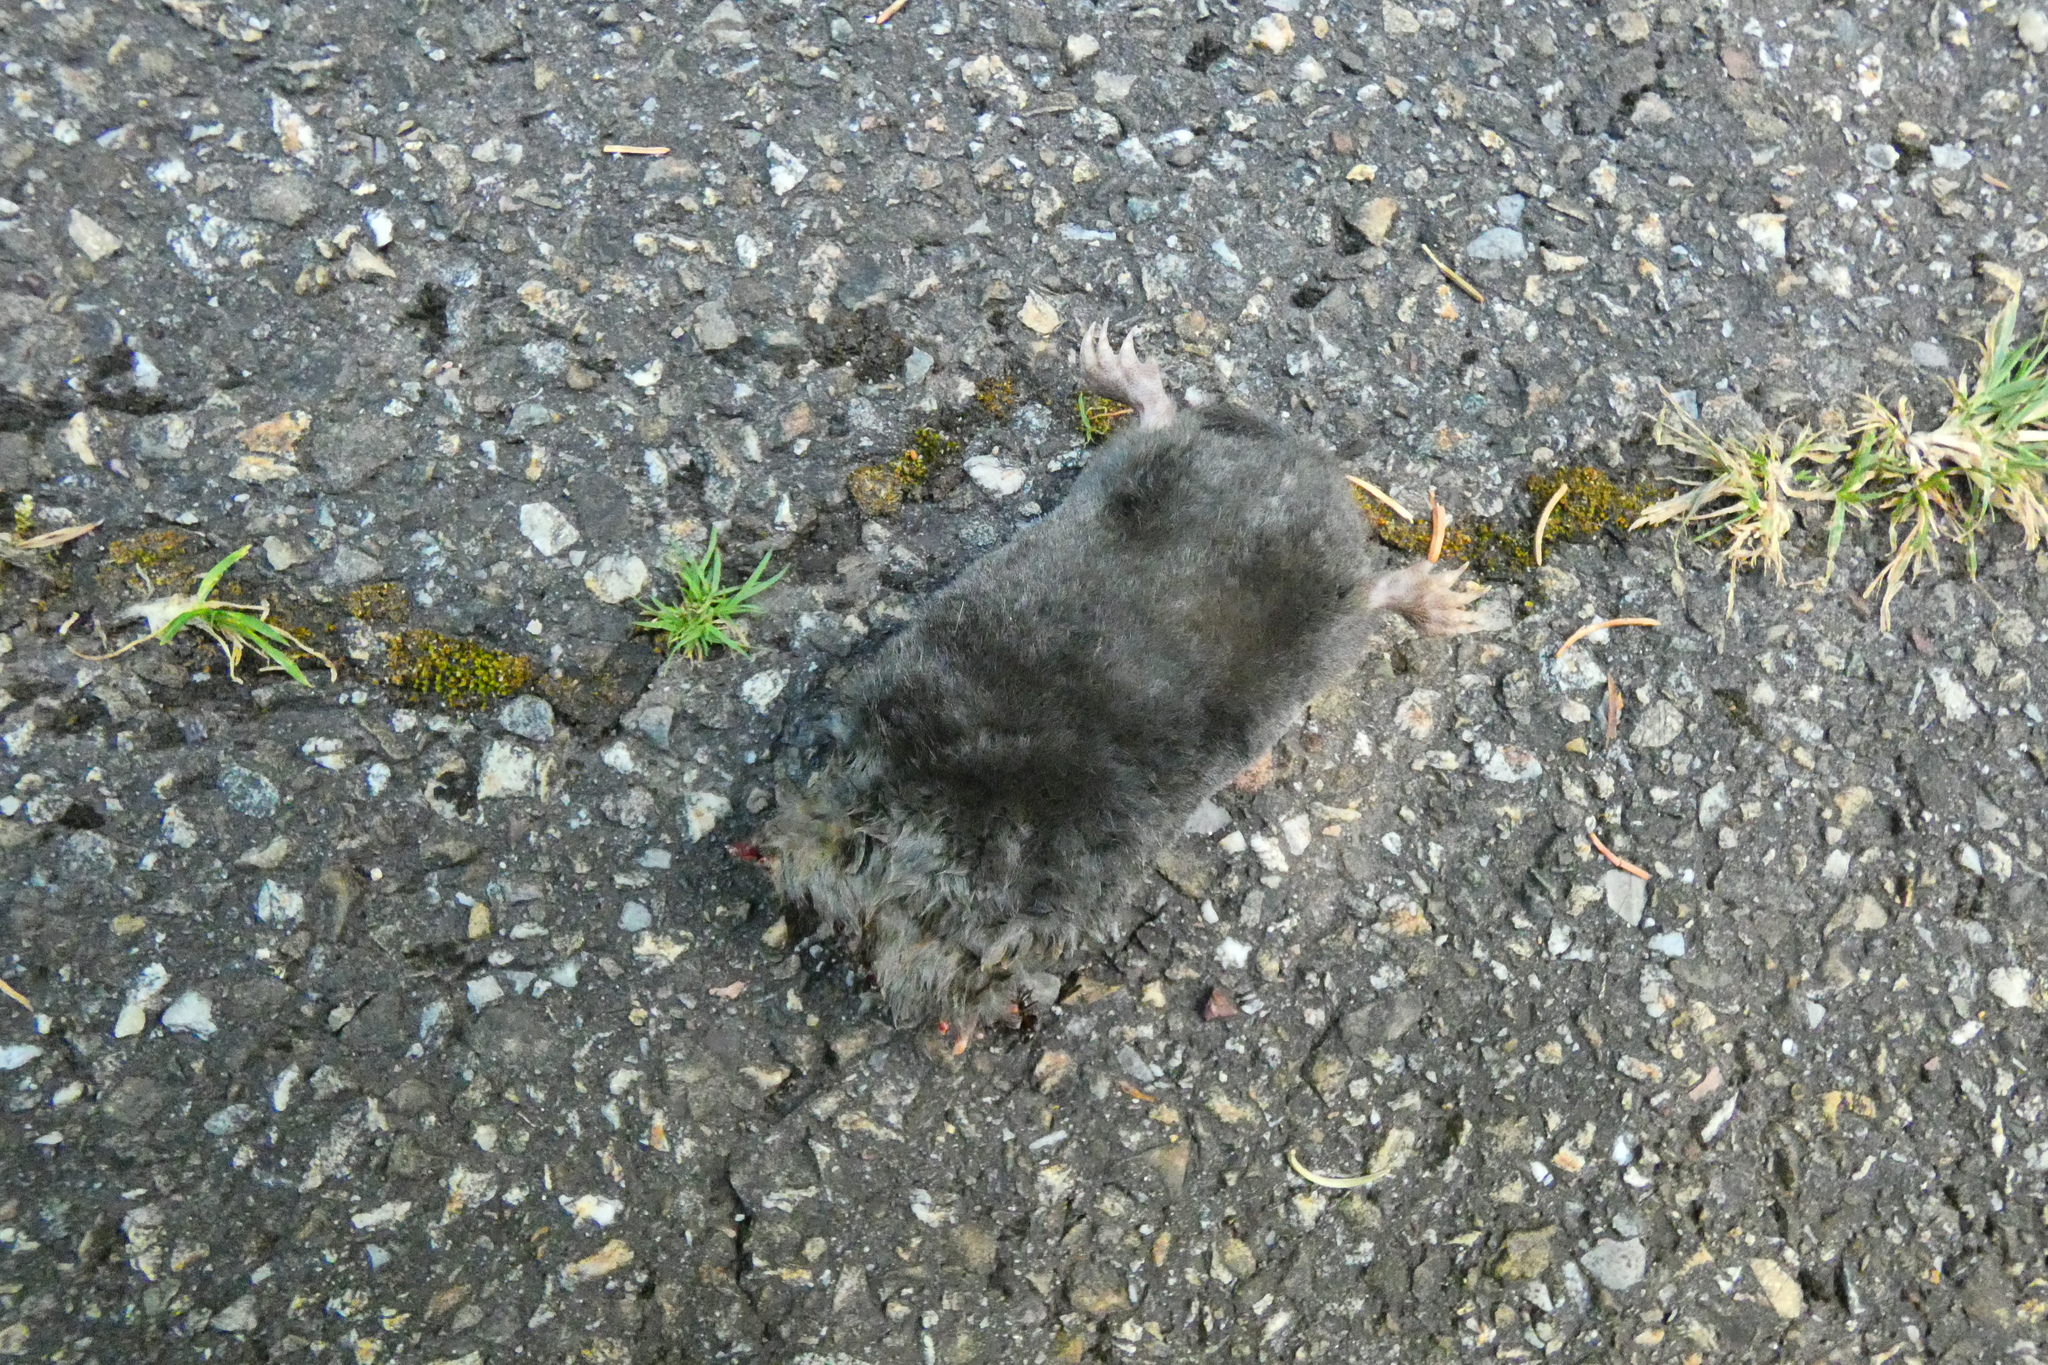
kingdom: Animalia
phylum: Chordata
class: Mammalia
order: Soricomorpha
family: Talpidae
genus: Talpa
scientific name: Talpa europaea
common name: European mole
